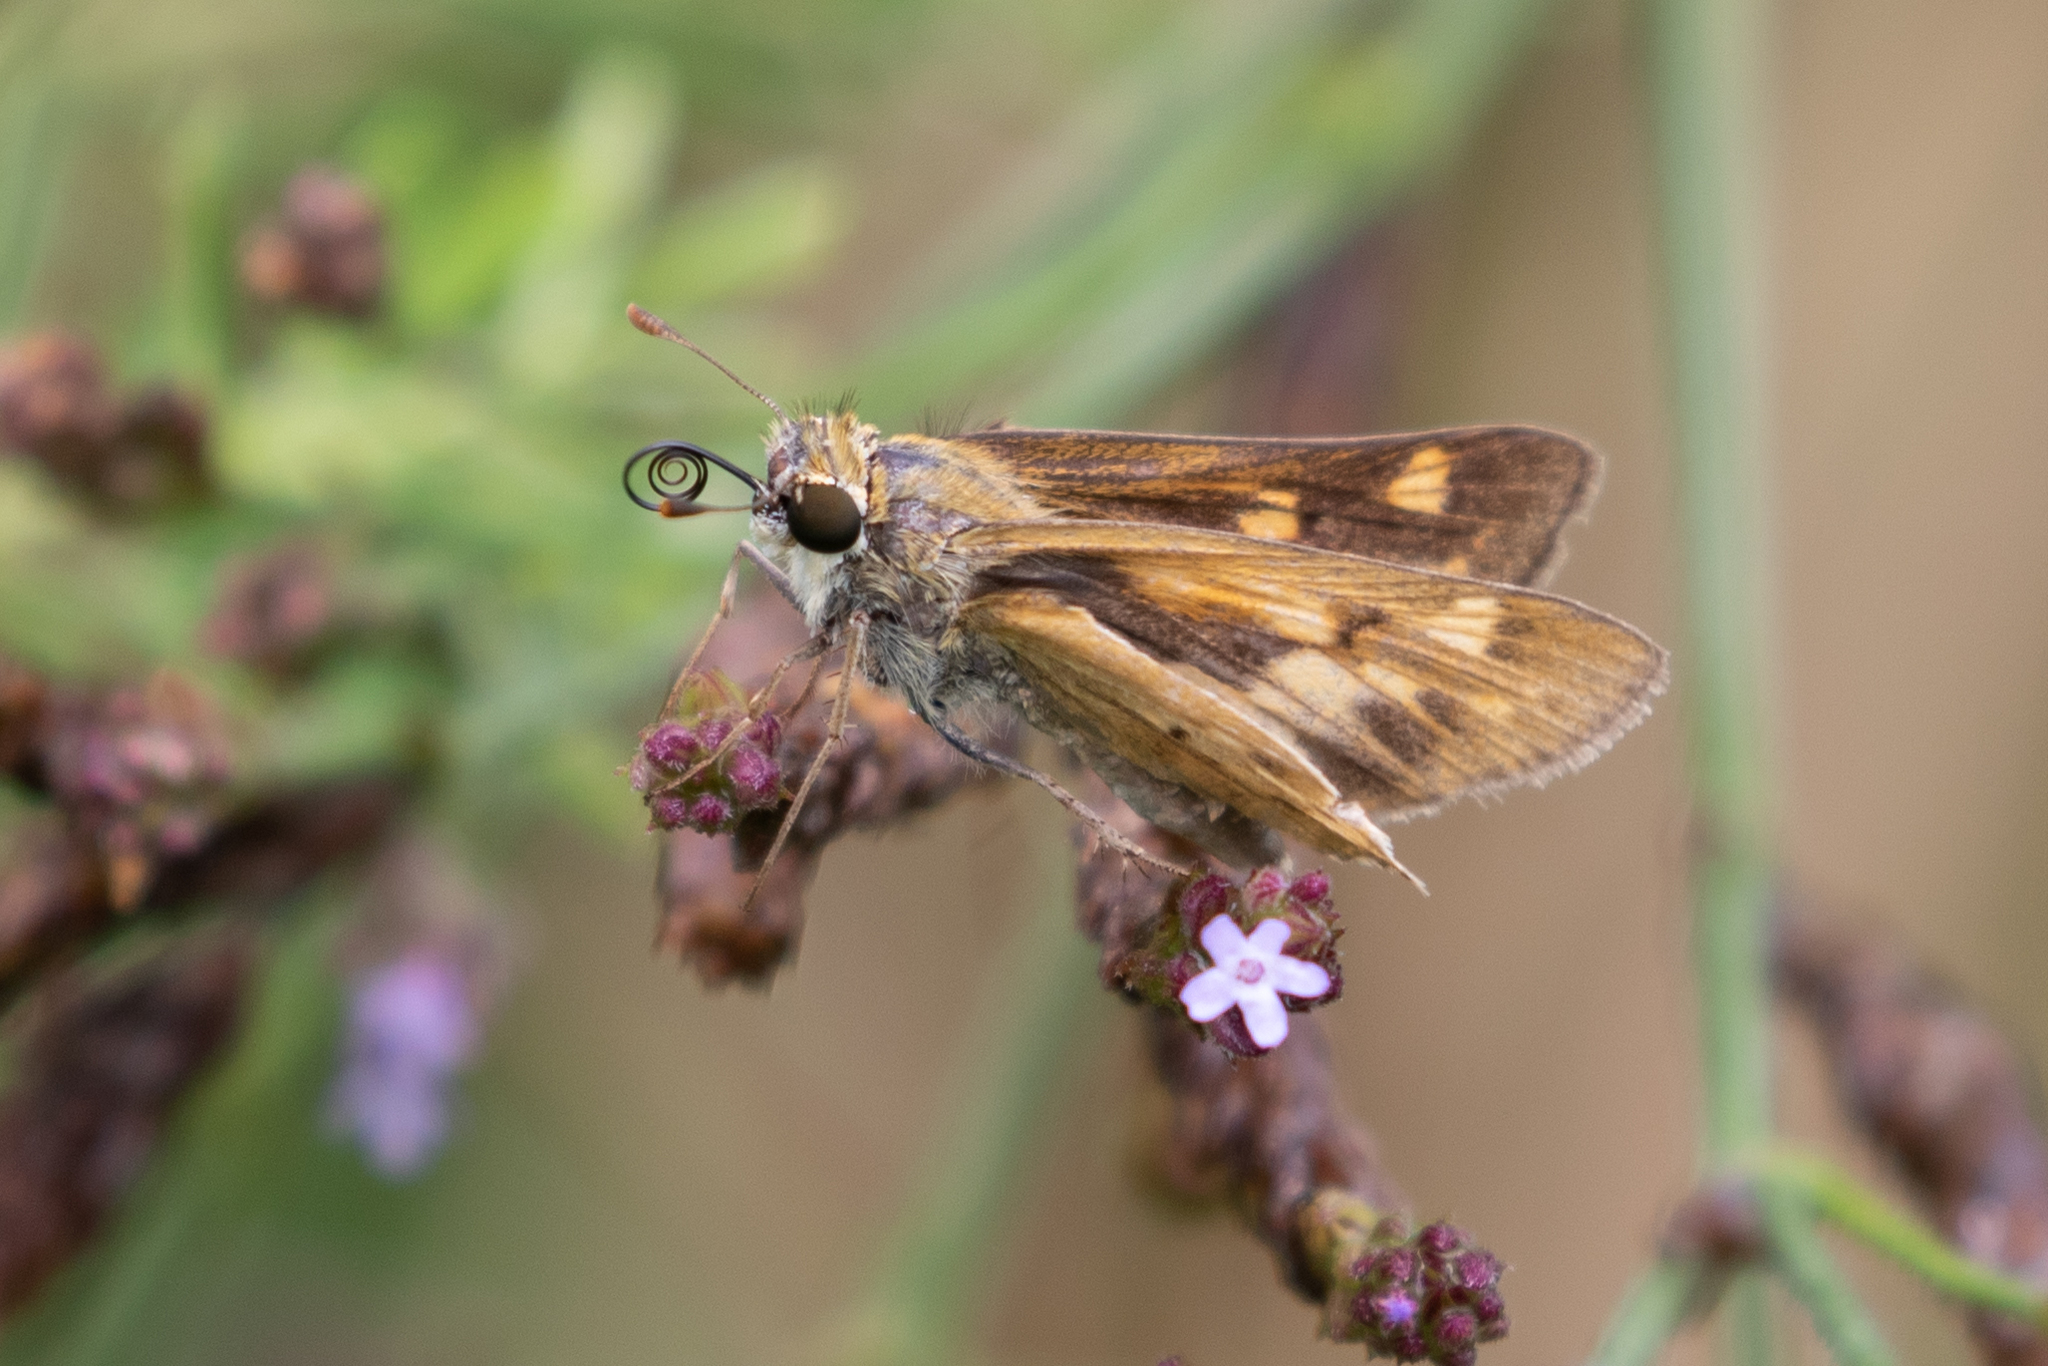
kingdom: Animalia
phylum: Arthropoda
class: Insecta
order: Lepidoptera
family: Hesperiidae
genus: Hylephila
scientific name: Hylephila phyleus
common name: Fiery skipper
